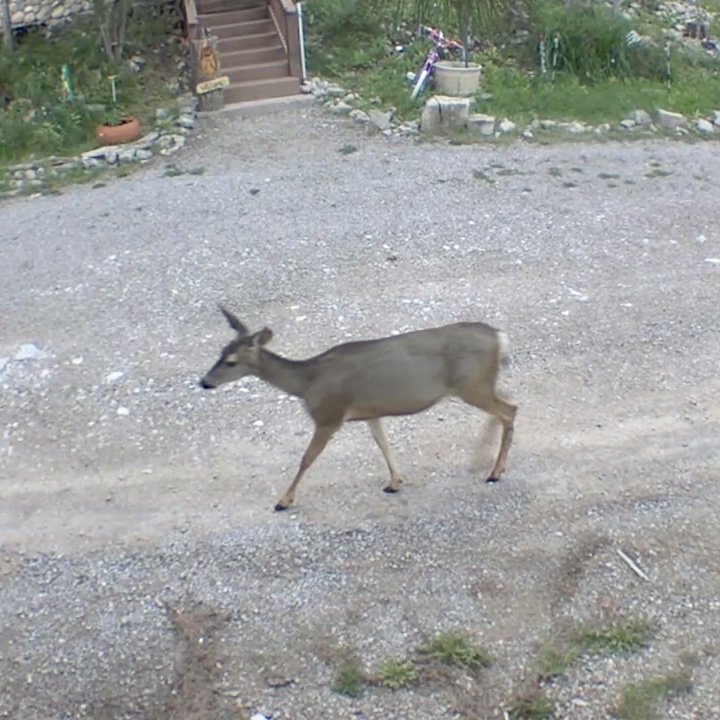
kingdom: Animalia
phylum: Chordata
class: Mammalia
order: Artiodactyla
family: Cervidae
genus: Odocoileus
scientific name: Odocoileus hemionus
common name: Mule deer
